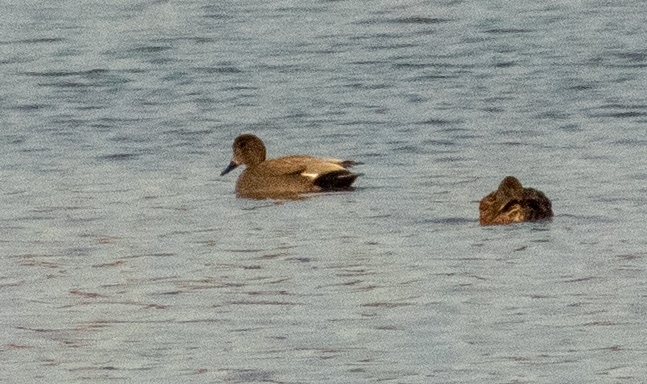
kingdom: Animalia
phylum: Chordata
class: Aves
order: Anseriformes
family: Anatidae
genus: Mareca
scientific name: Mareca strepera
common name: Gadwall
